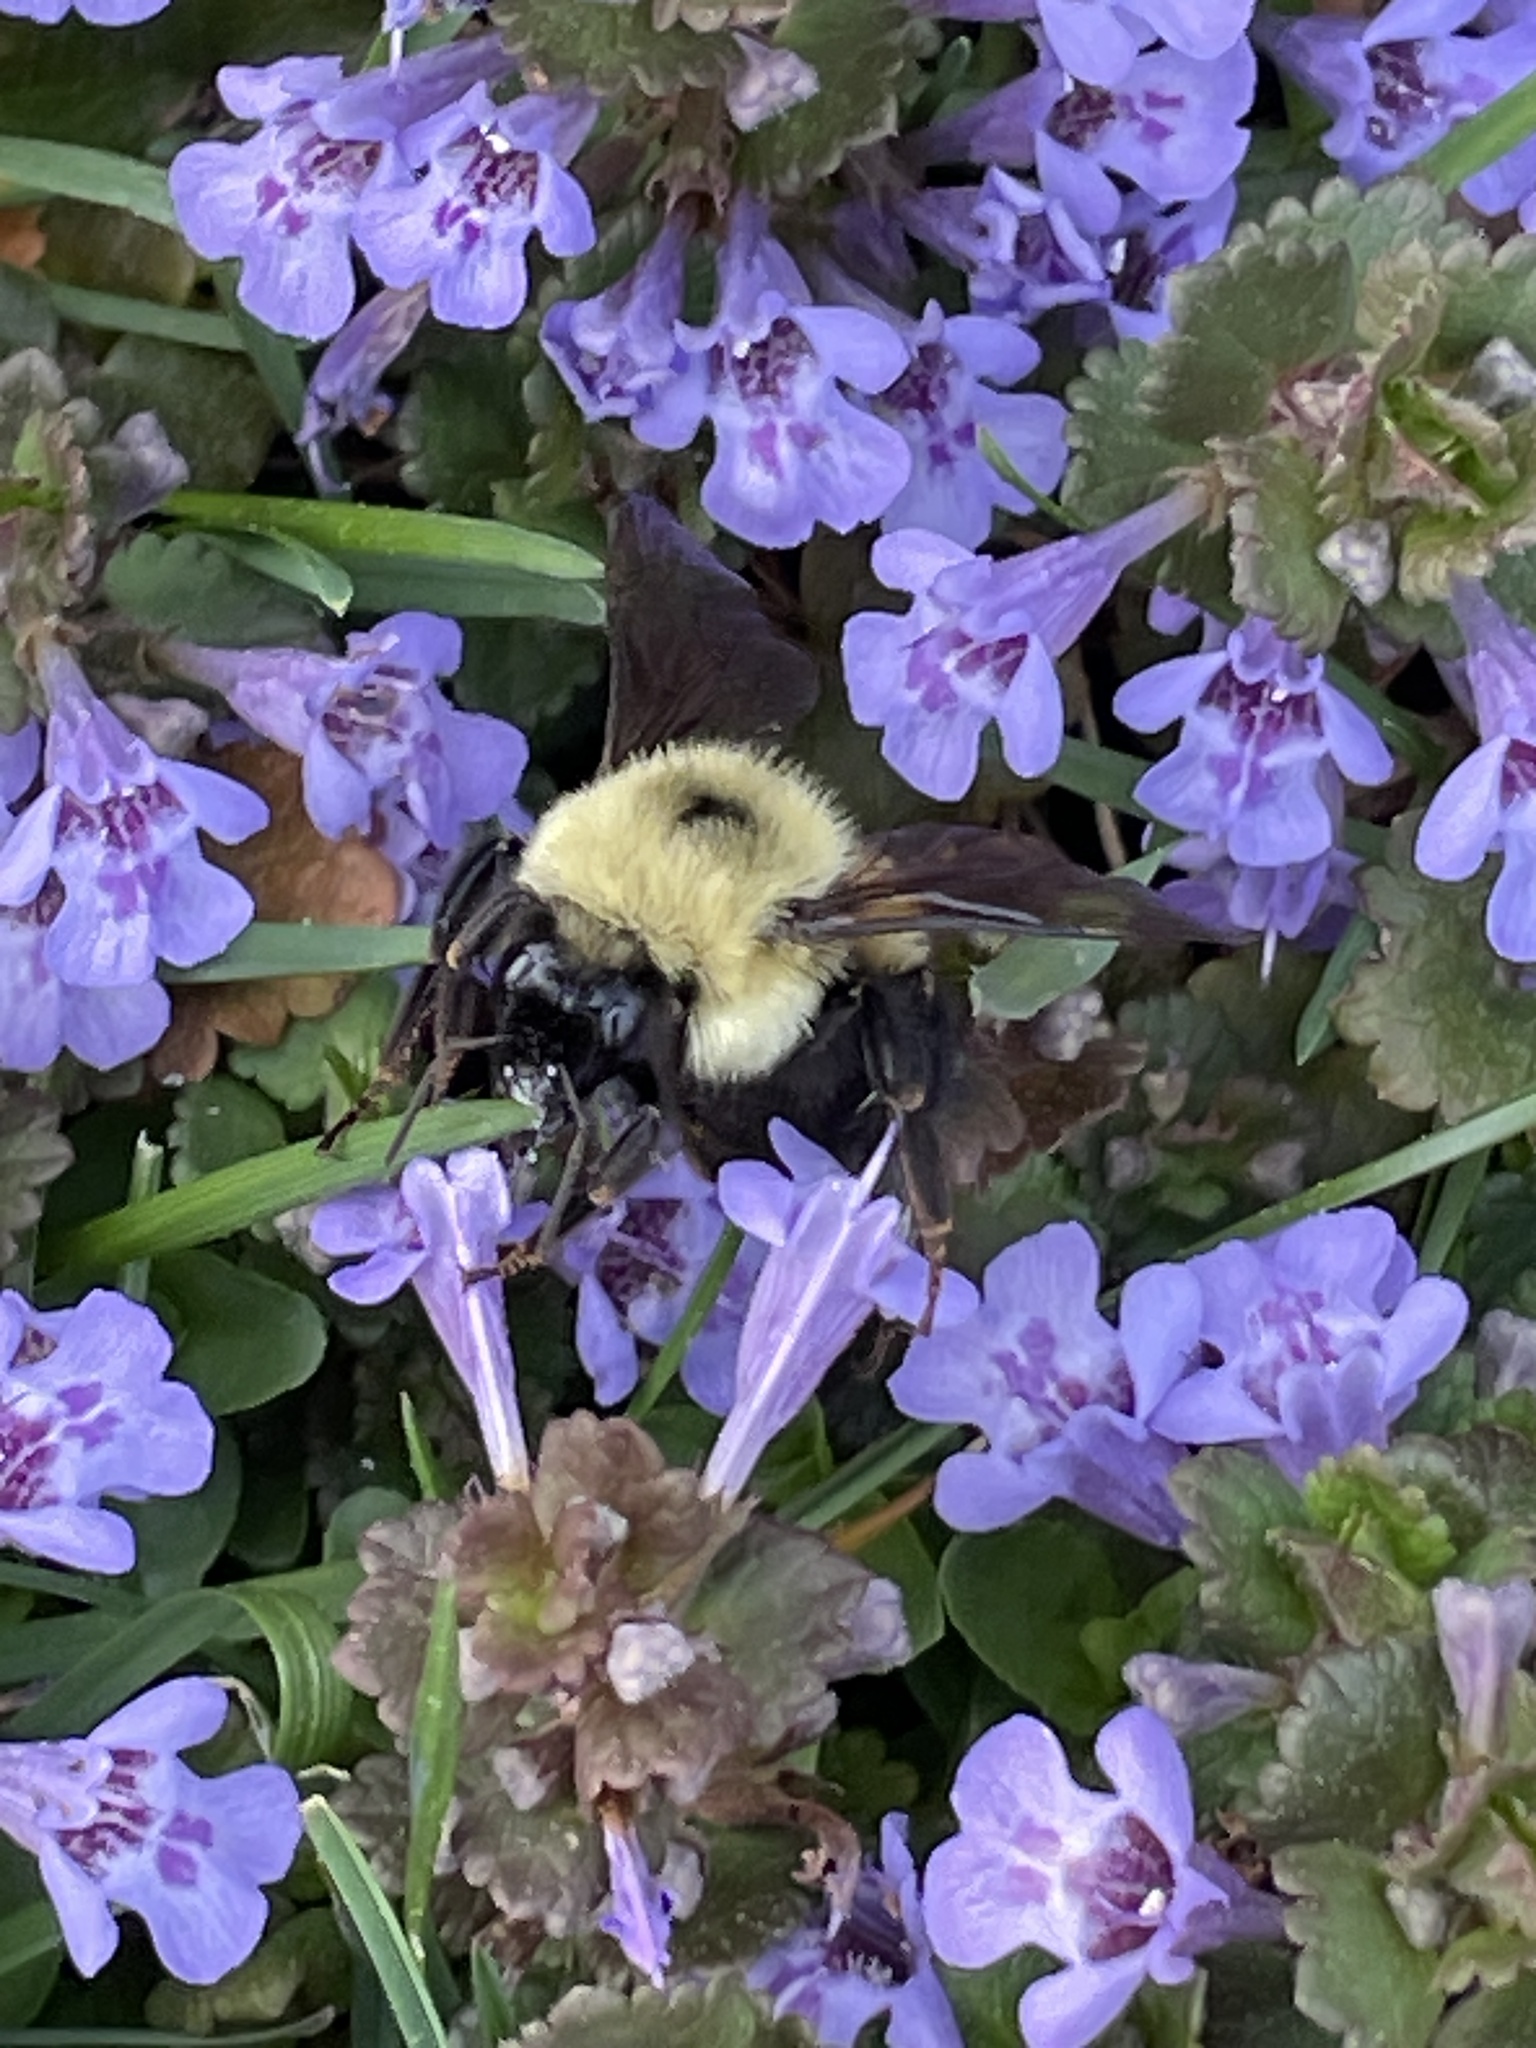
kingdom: Animalia
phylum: Arthropoda
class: Insecta
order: Hymenoptera
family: Apidae
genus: Bombus
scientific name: Bombus bimaculatus
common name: Two-spotted bumble bee
